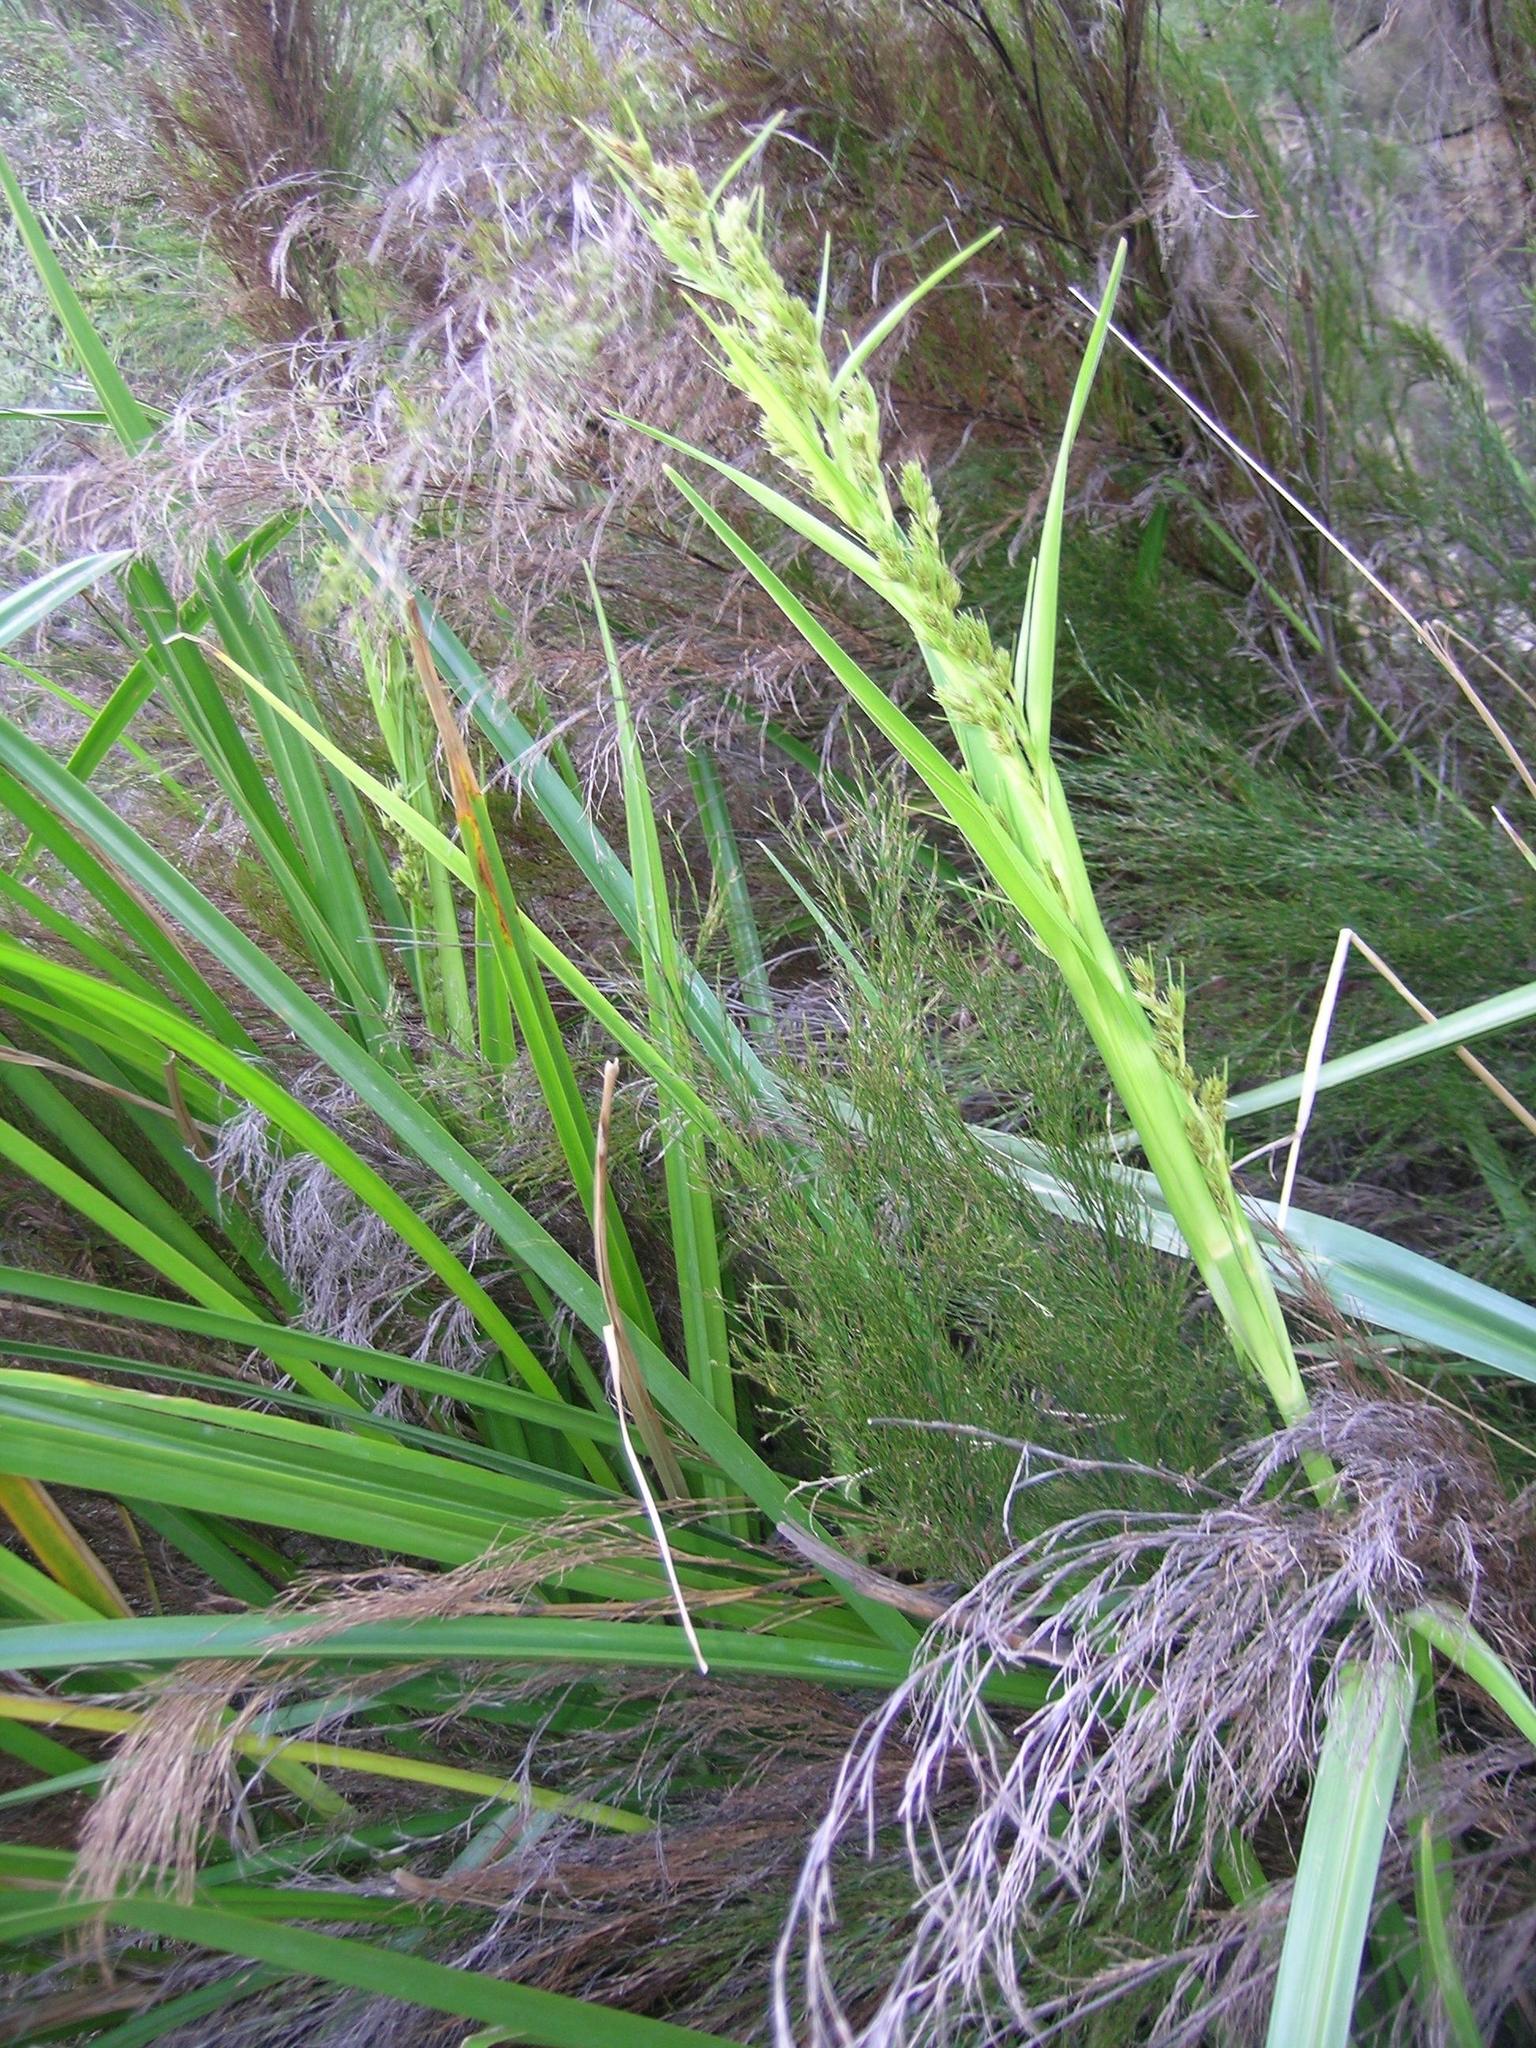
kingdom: Plantae
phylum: Tracheophyta
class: Liliopsida
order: Poales
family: Cyperaceae
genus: Carpha
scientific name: Carpha glomerata
